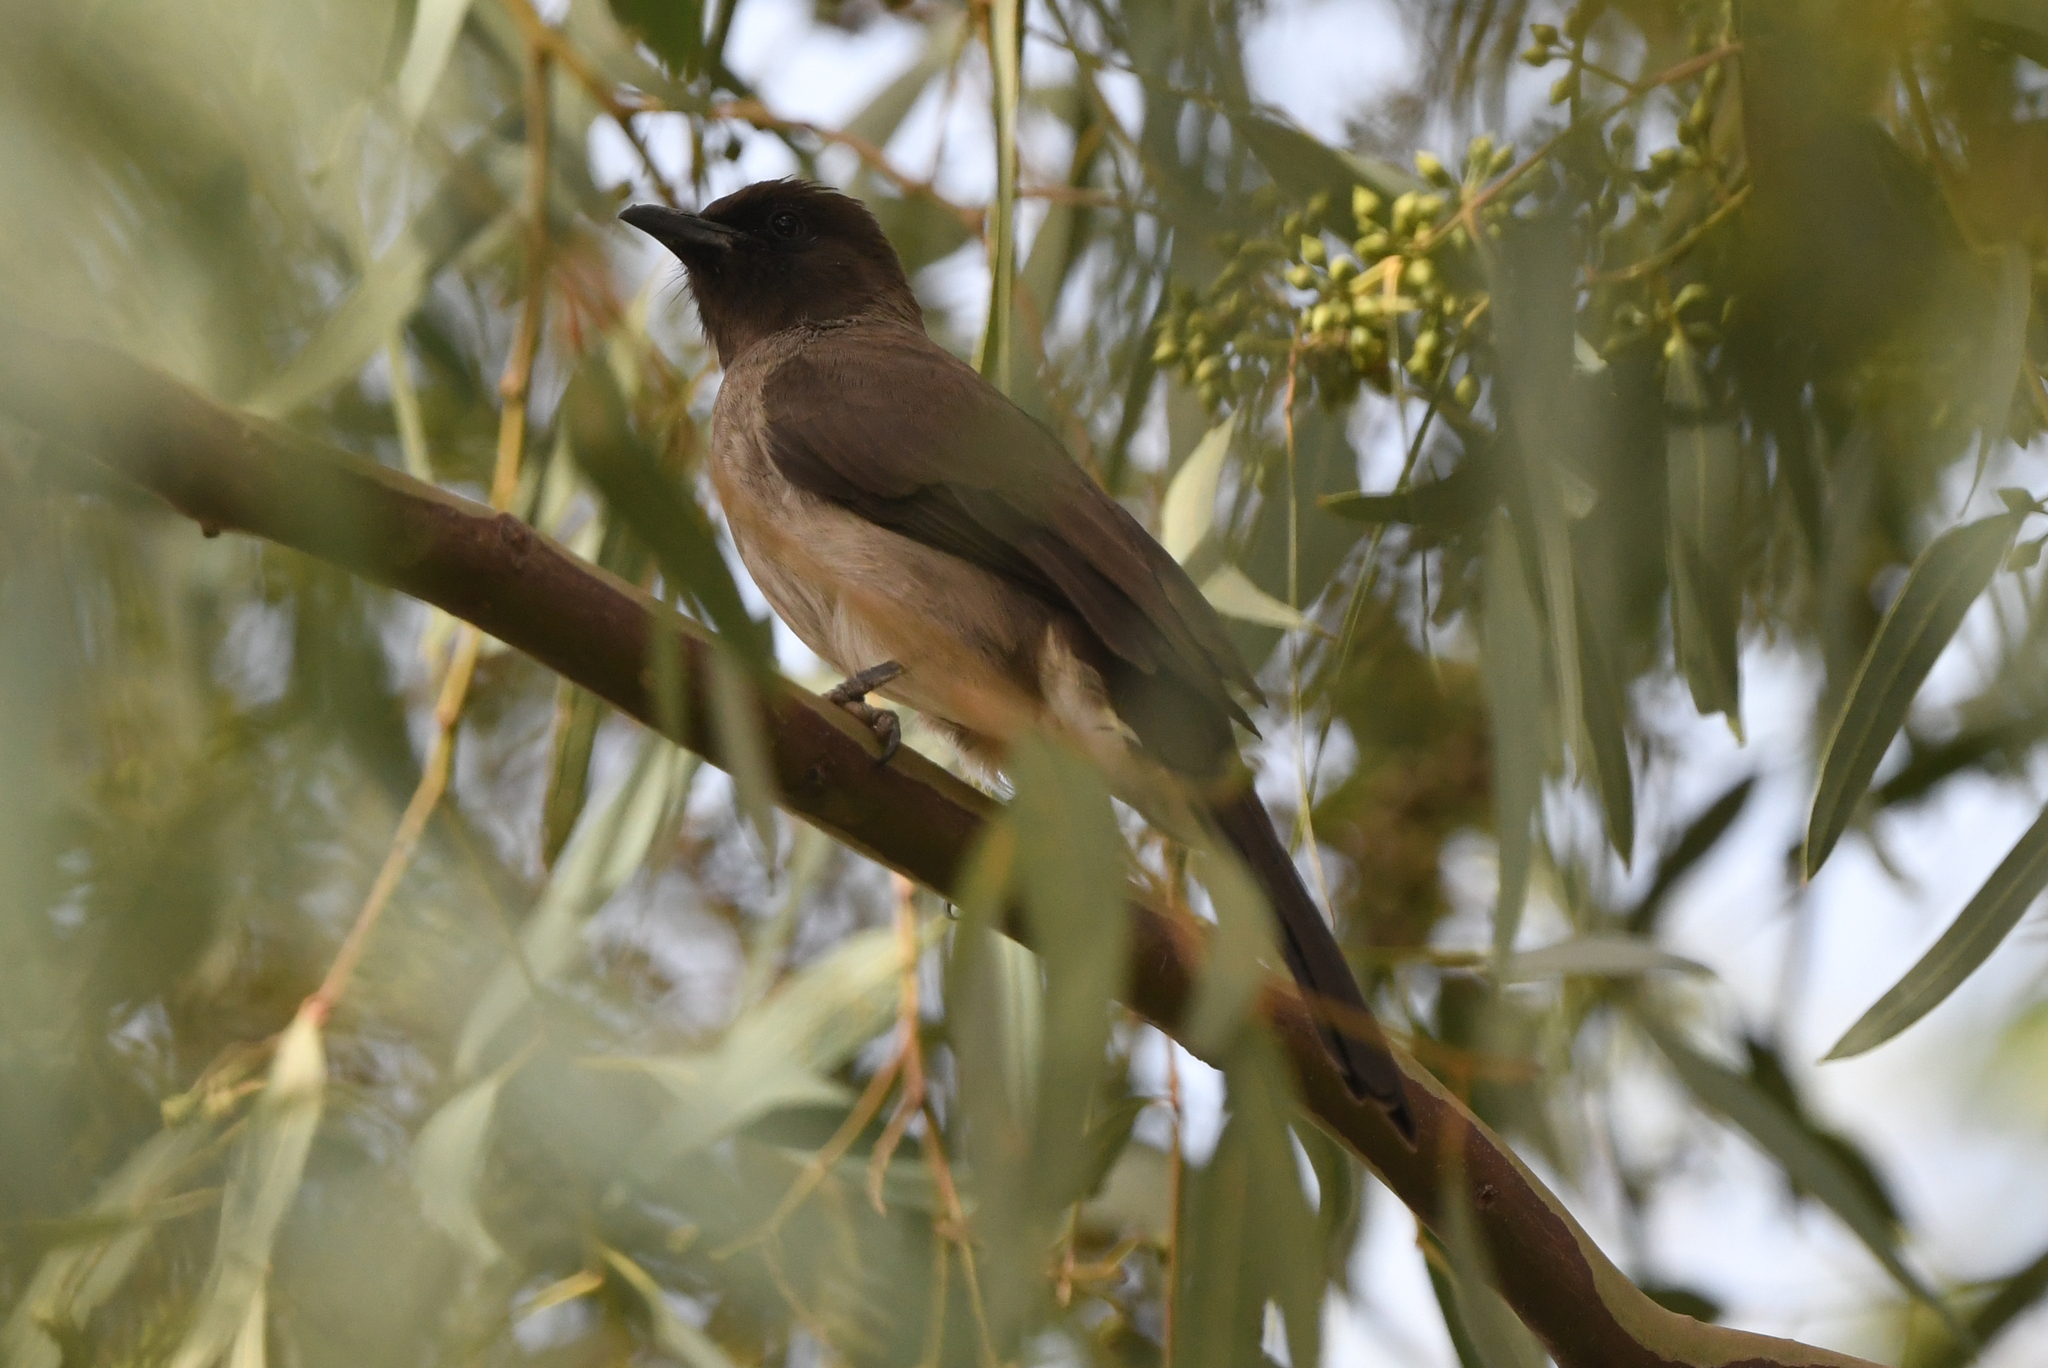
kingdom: Animalia
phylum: Chordata
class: Aves
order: Passeriformes
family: Pycnonotidae
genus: Pycnonotus
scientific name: Pycnonotus barbatus
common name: Common bulbul
